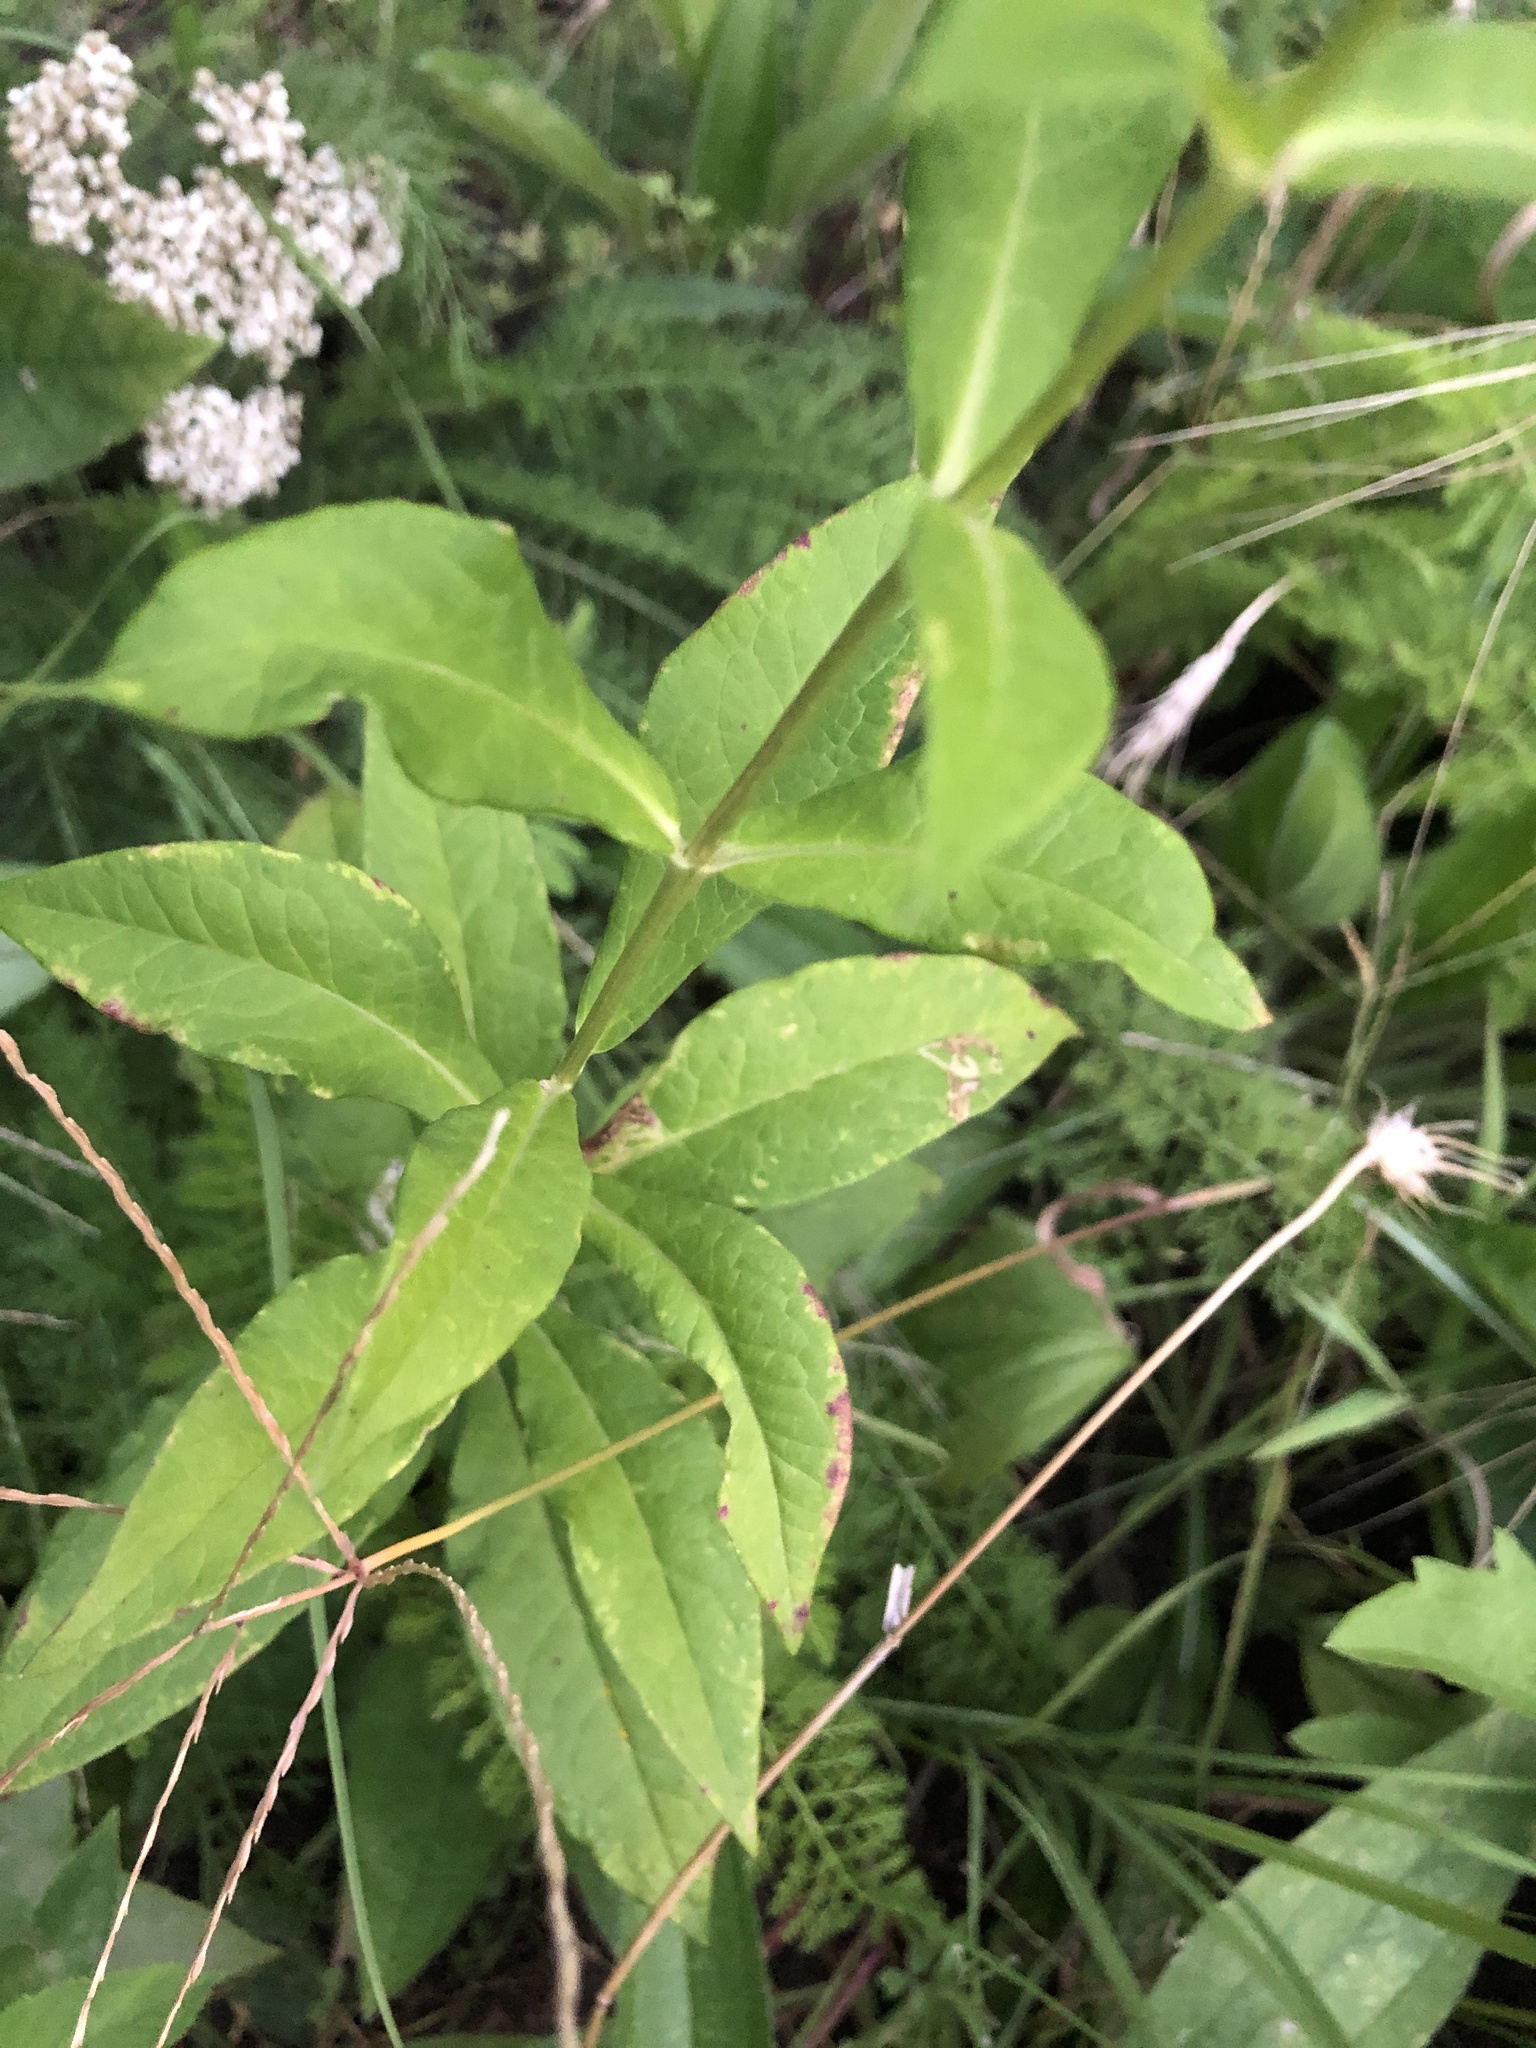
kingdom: Plantae
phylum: Tracheophyta
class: Magnoliopsida
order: Ericales
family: Polemoniaceae
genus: Phlox
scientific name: Phlox pilosa
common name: Prairie phlox
